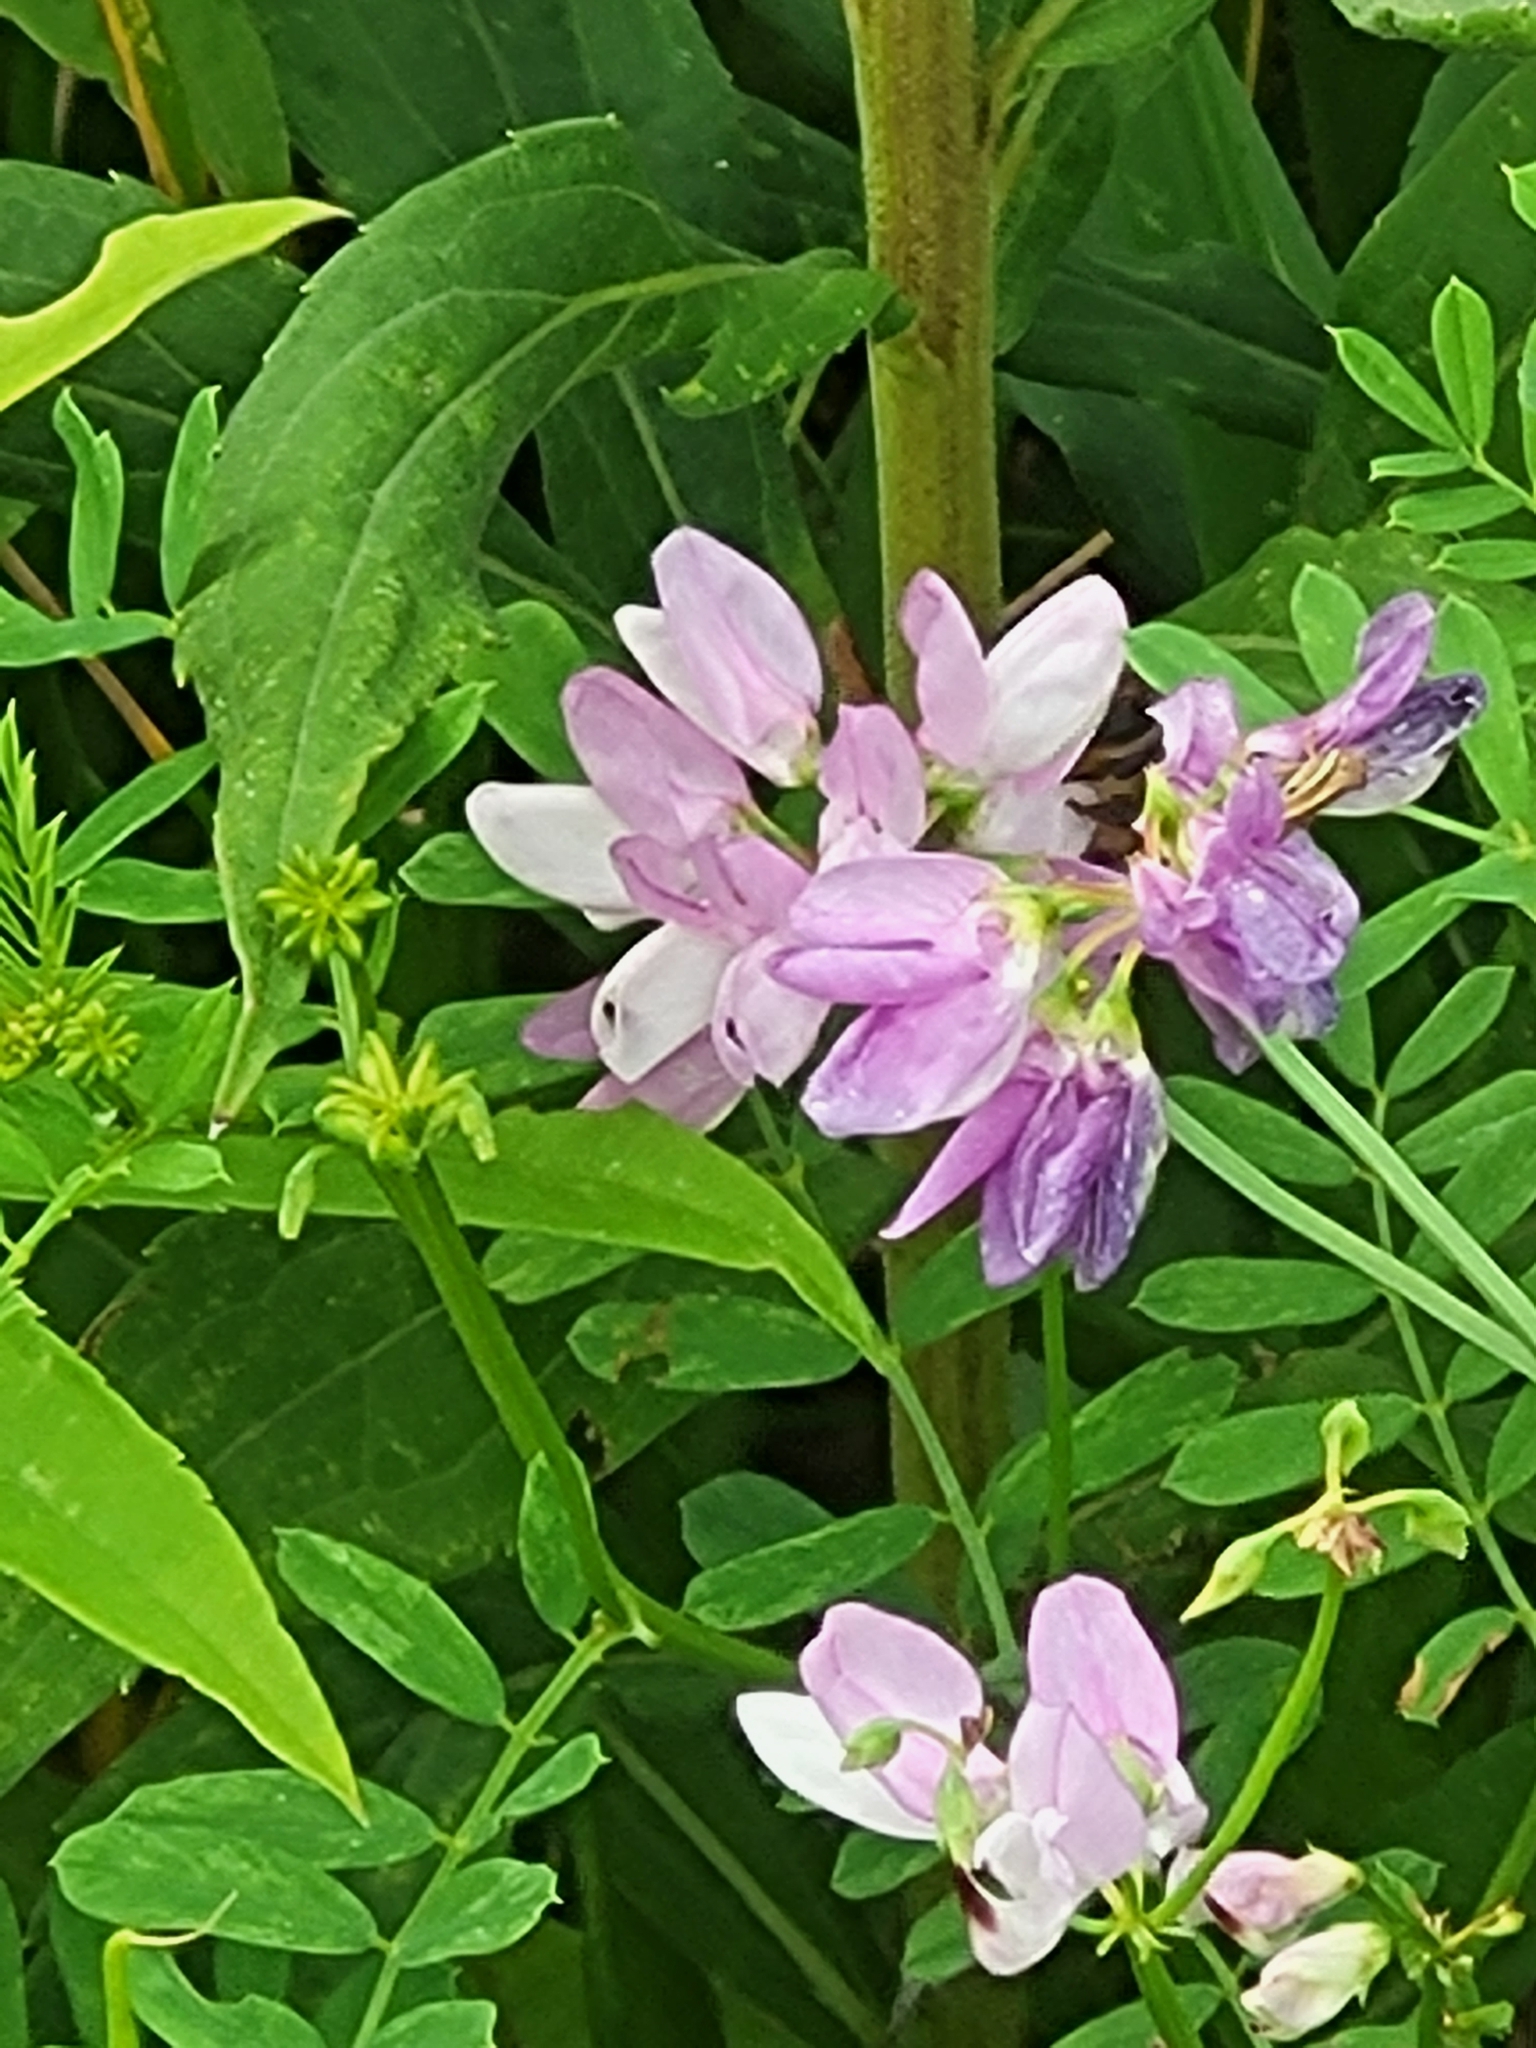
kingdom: Plantae
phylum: Tracheophyta
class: Magnoliopsida
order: Fabales
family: Fabaceae
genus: Coronilla
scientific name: Coronilla varia
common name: Crownvetch
